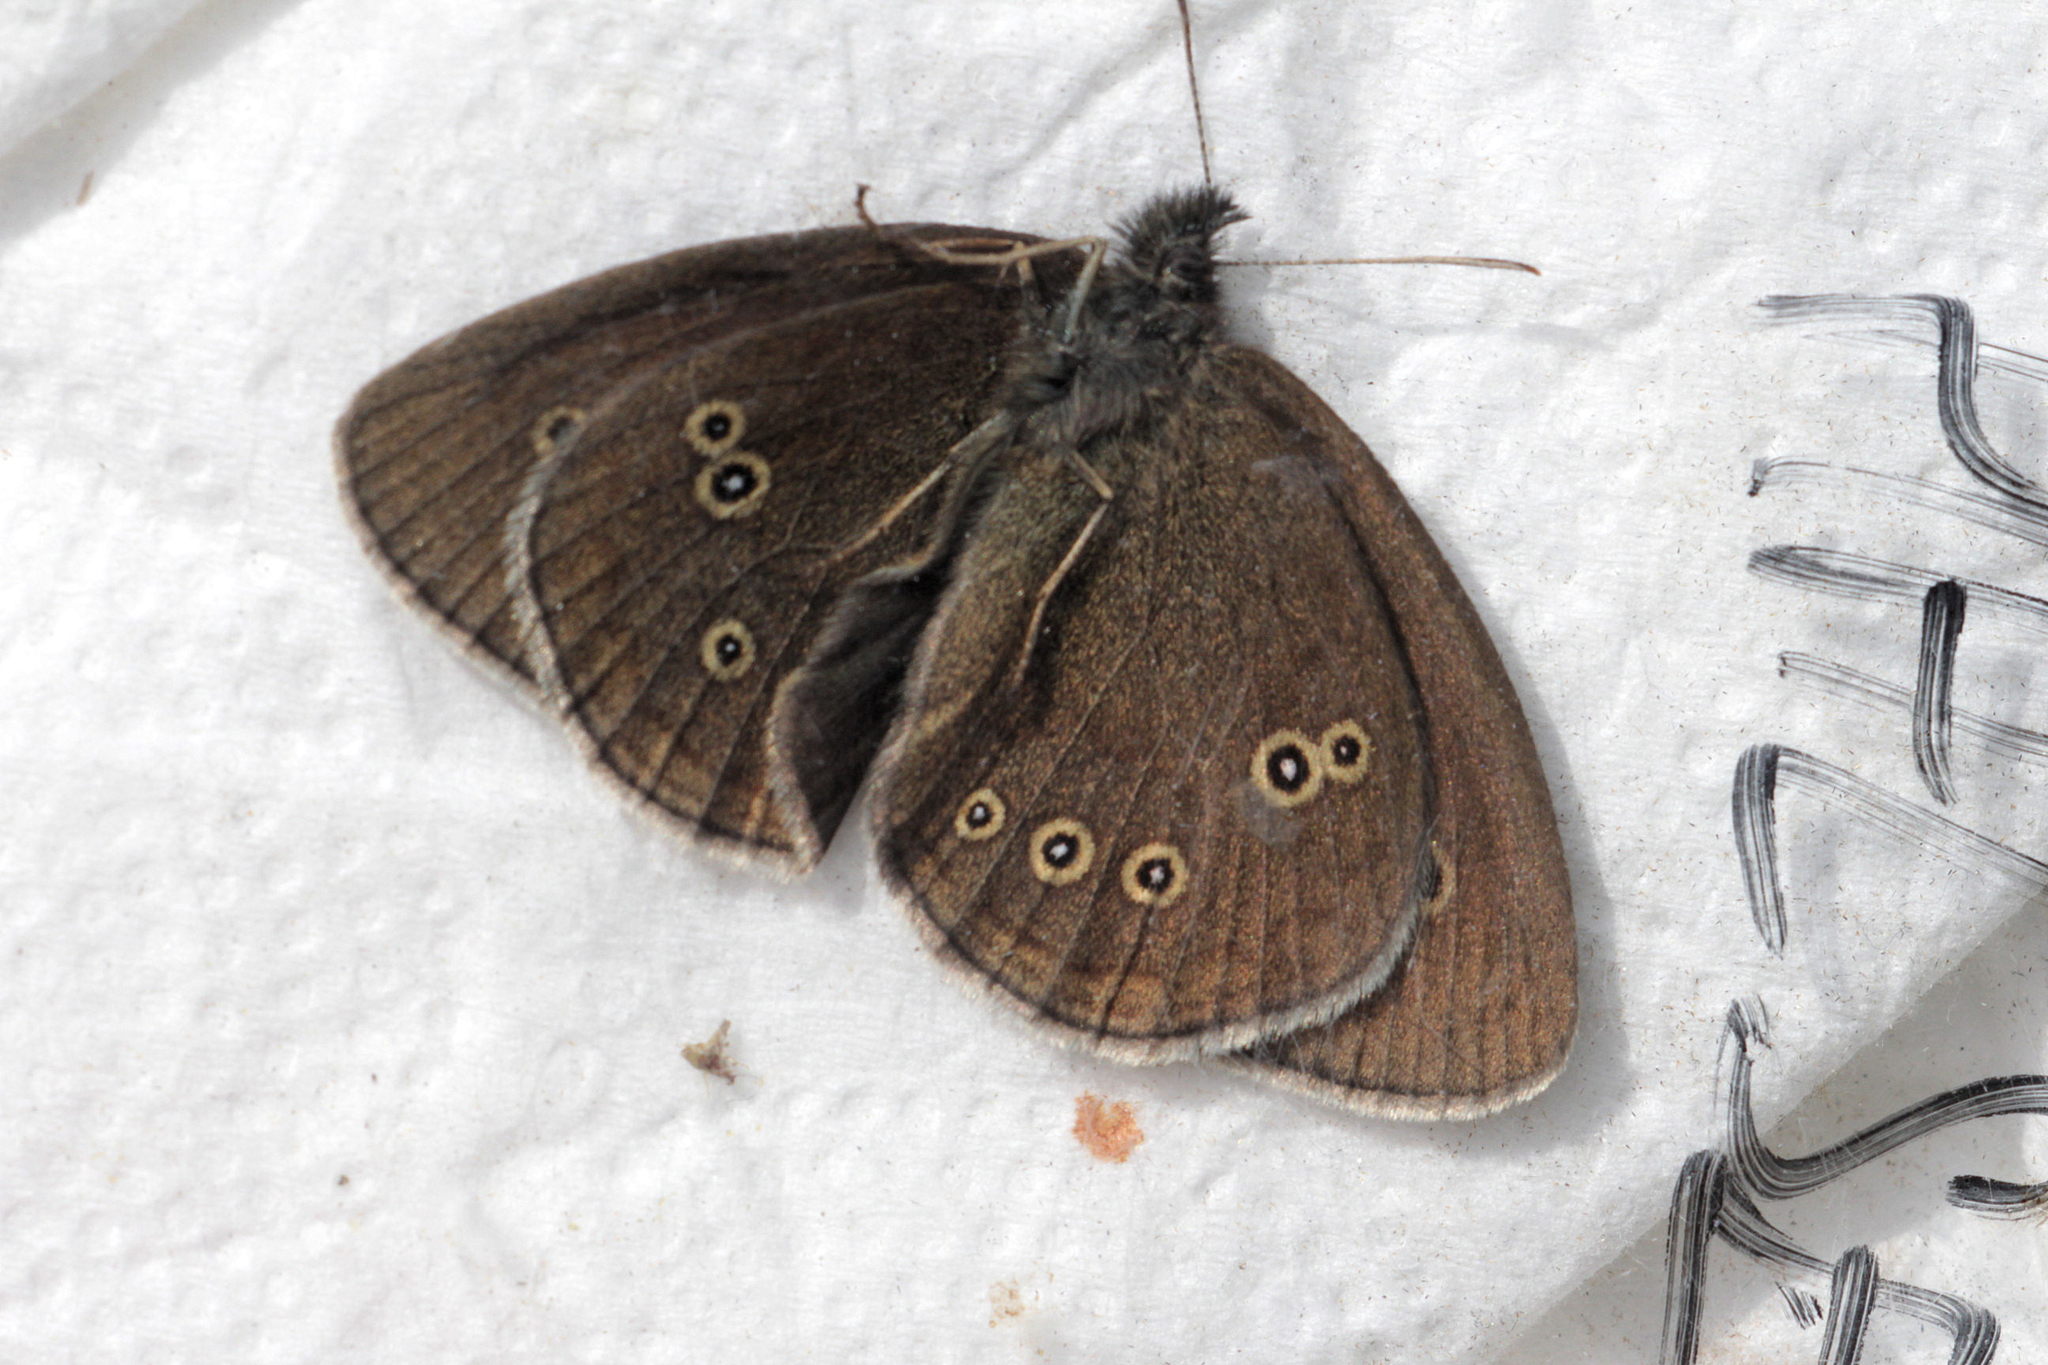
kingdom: Animalia
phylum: Arthropoda
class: Insecta
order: Lepidoptera
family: Nymphalidae
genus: Aphantopus
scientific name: Aphantopus hyperantus
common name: Ringlet
